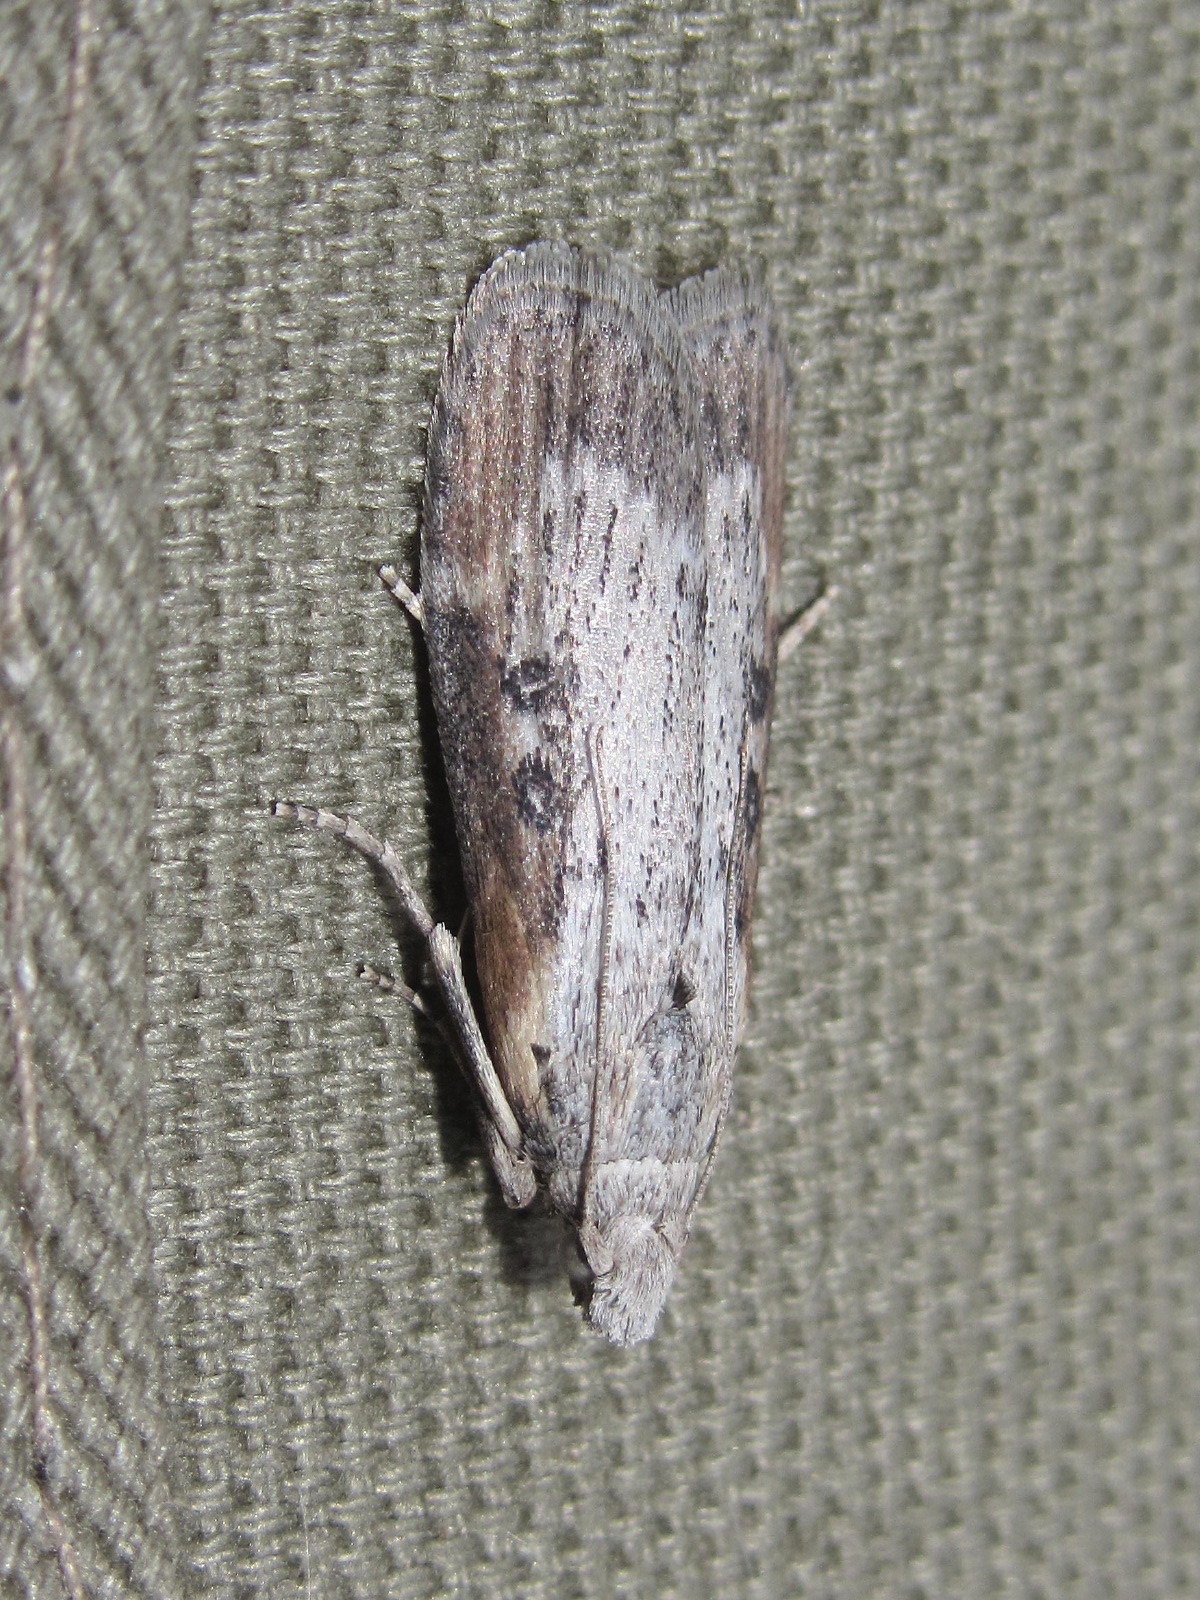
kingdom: Animalia
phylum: Arthropoda
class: Insecta
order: Lepidoptera
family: Pyralidae
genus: Lamoria
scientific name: Lamoria anella
